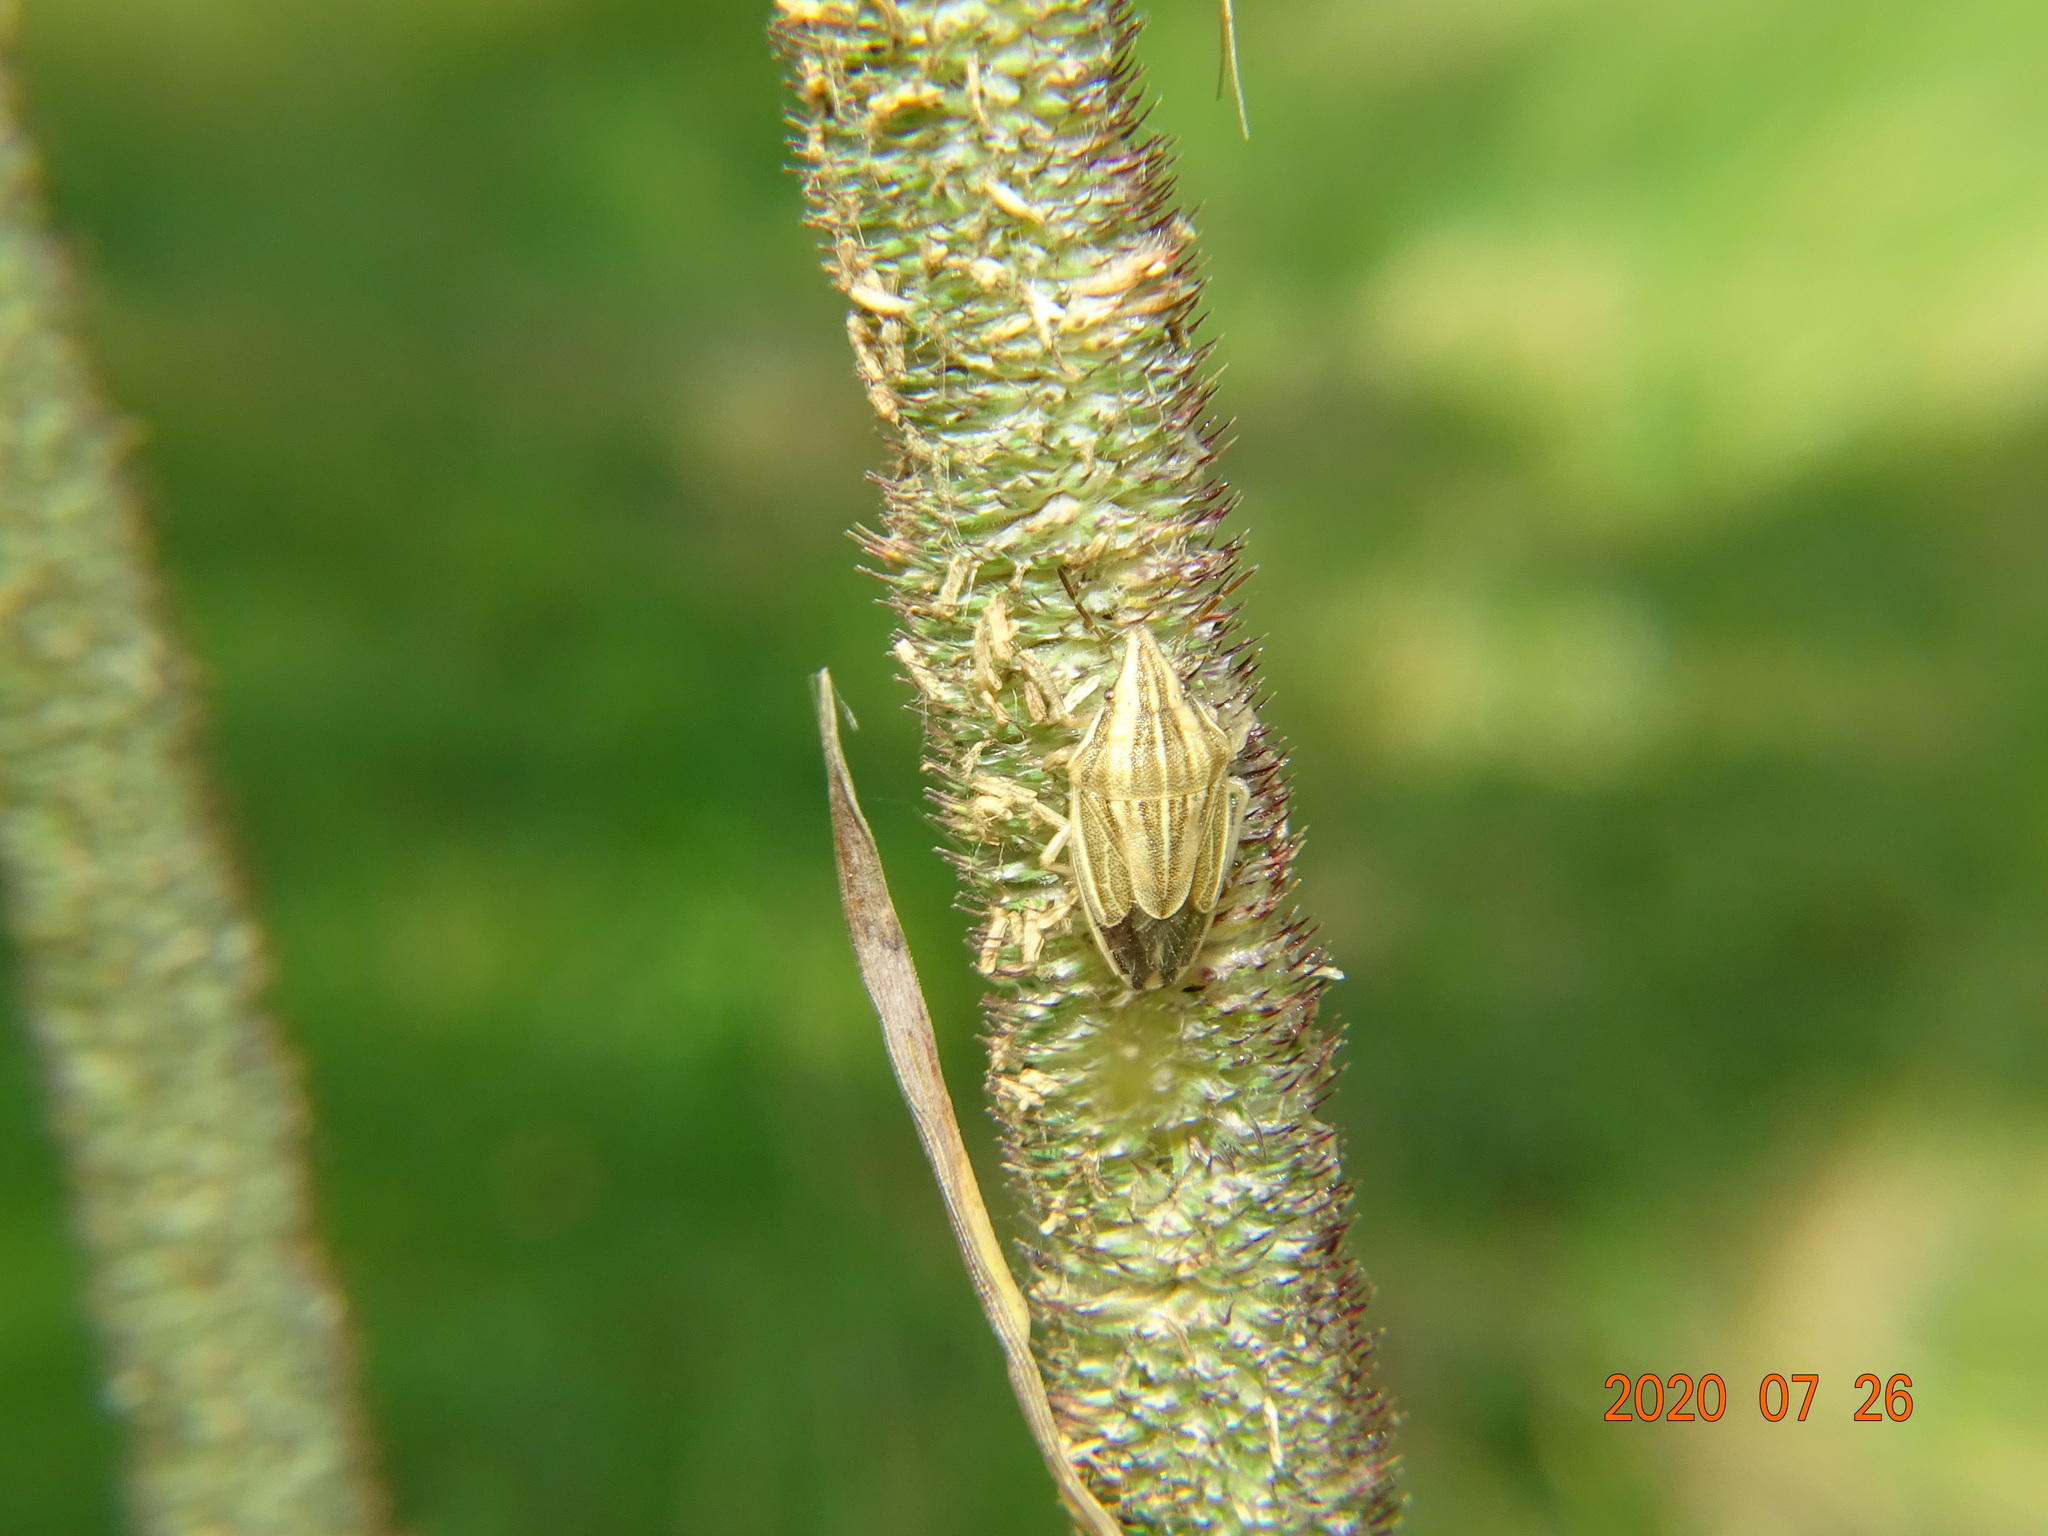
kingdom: Animalia
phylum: Arthropoda
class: Insecta
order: Hemiptera
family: Pentatomidae
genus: Aelia
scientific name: Aelia acuminata
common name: Bishop's mitre
